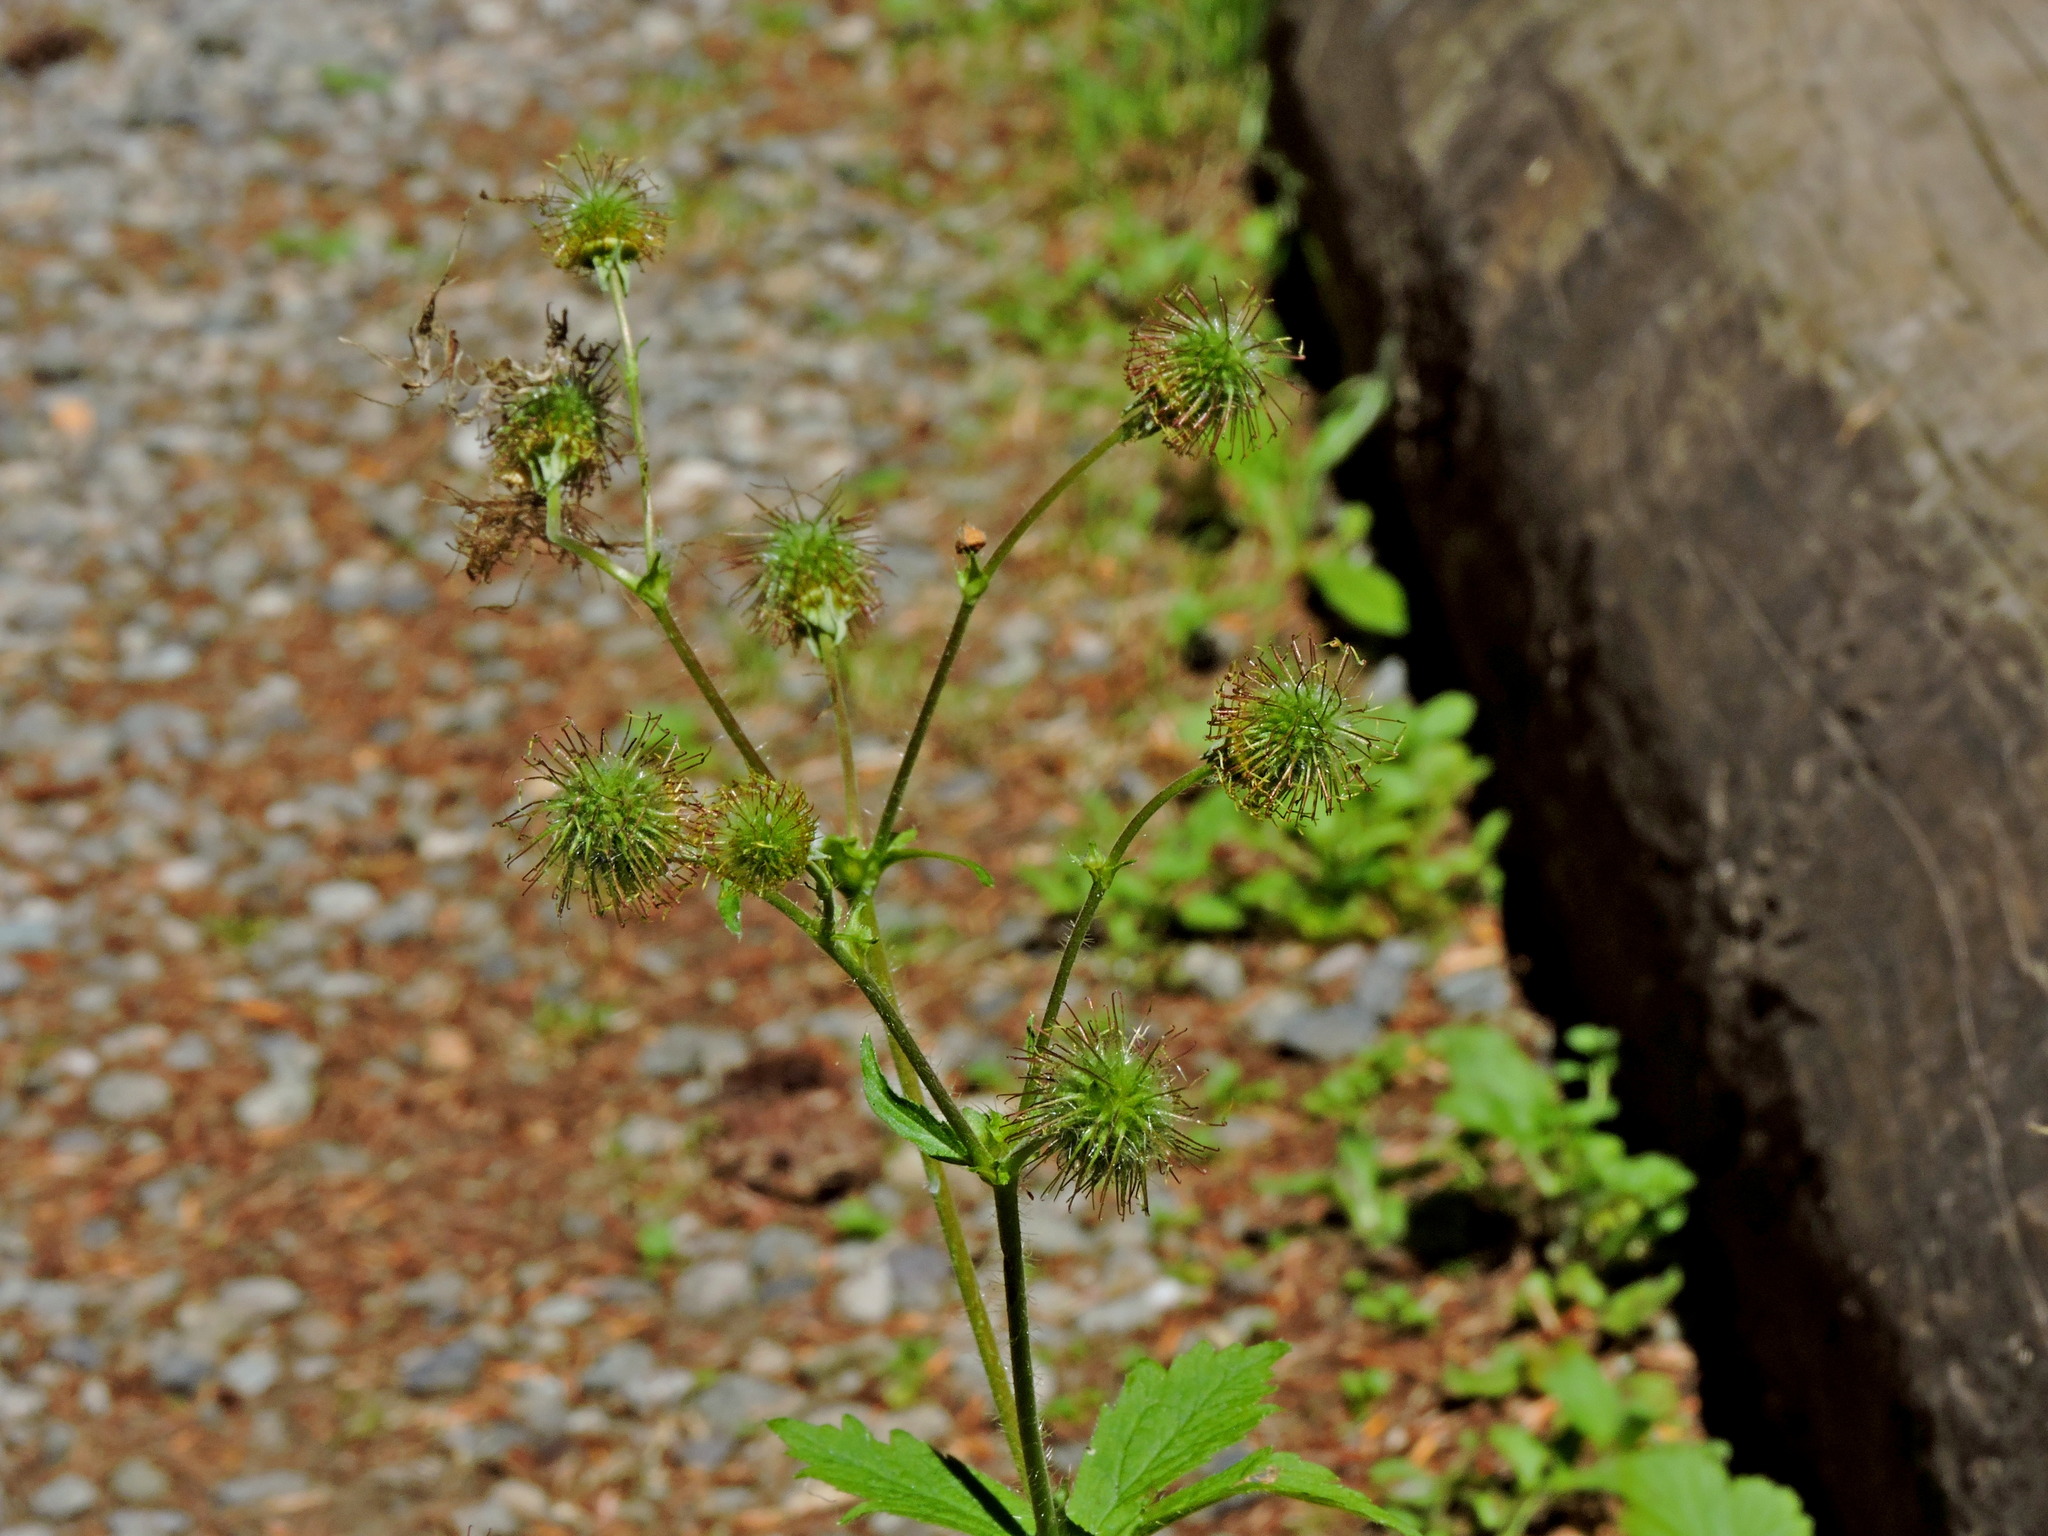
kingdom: Plantae
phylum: Tracheophyta
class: Magnoliopsida
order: Rosales
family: Rosaceae
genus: Geum
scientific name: Geum macrophyllum
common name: Large-leaved avens
